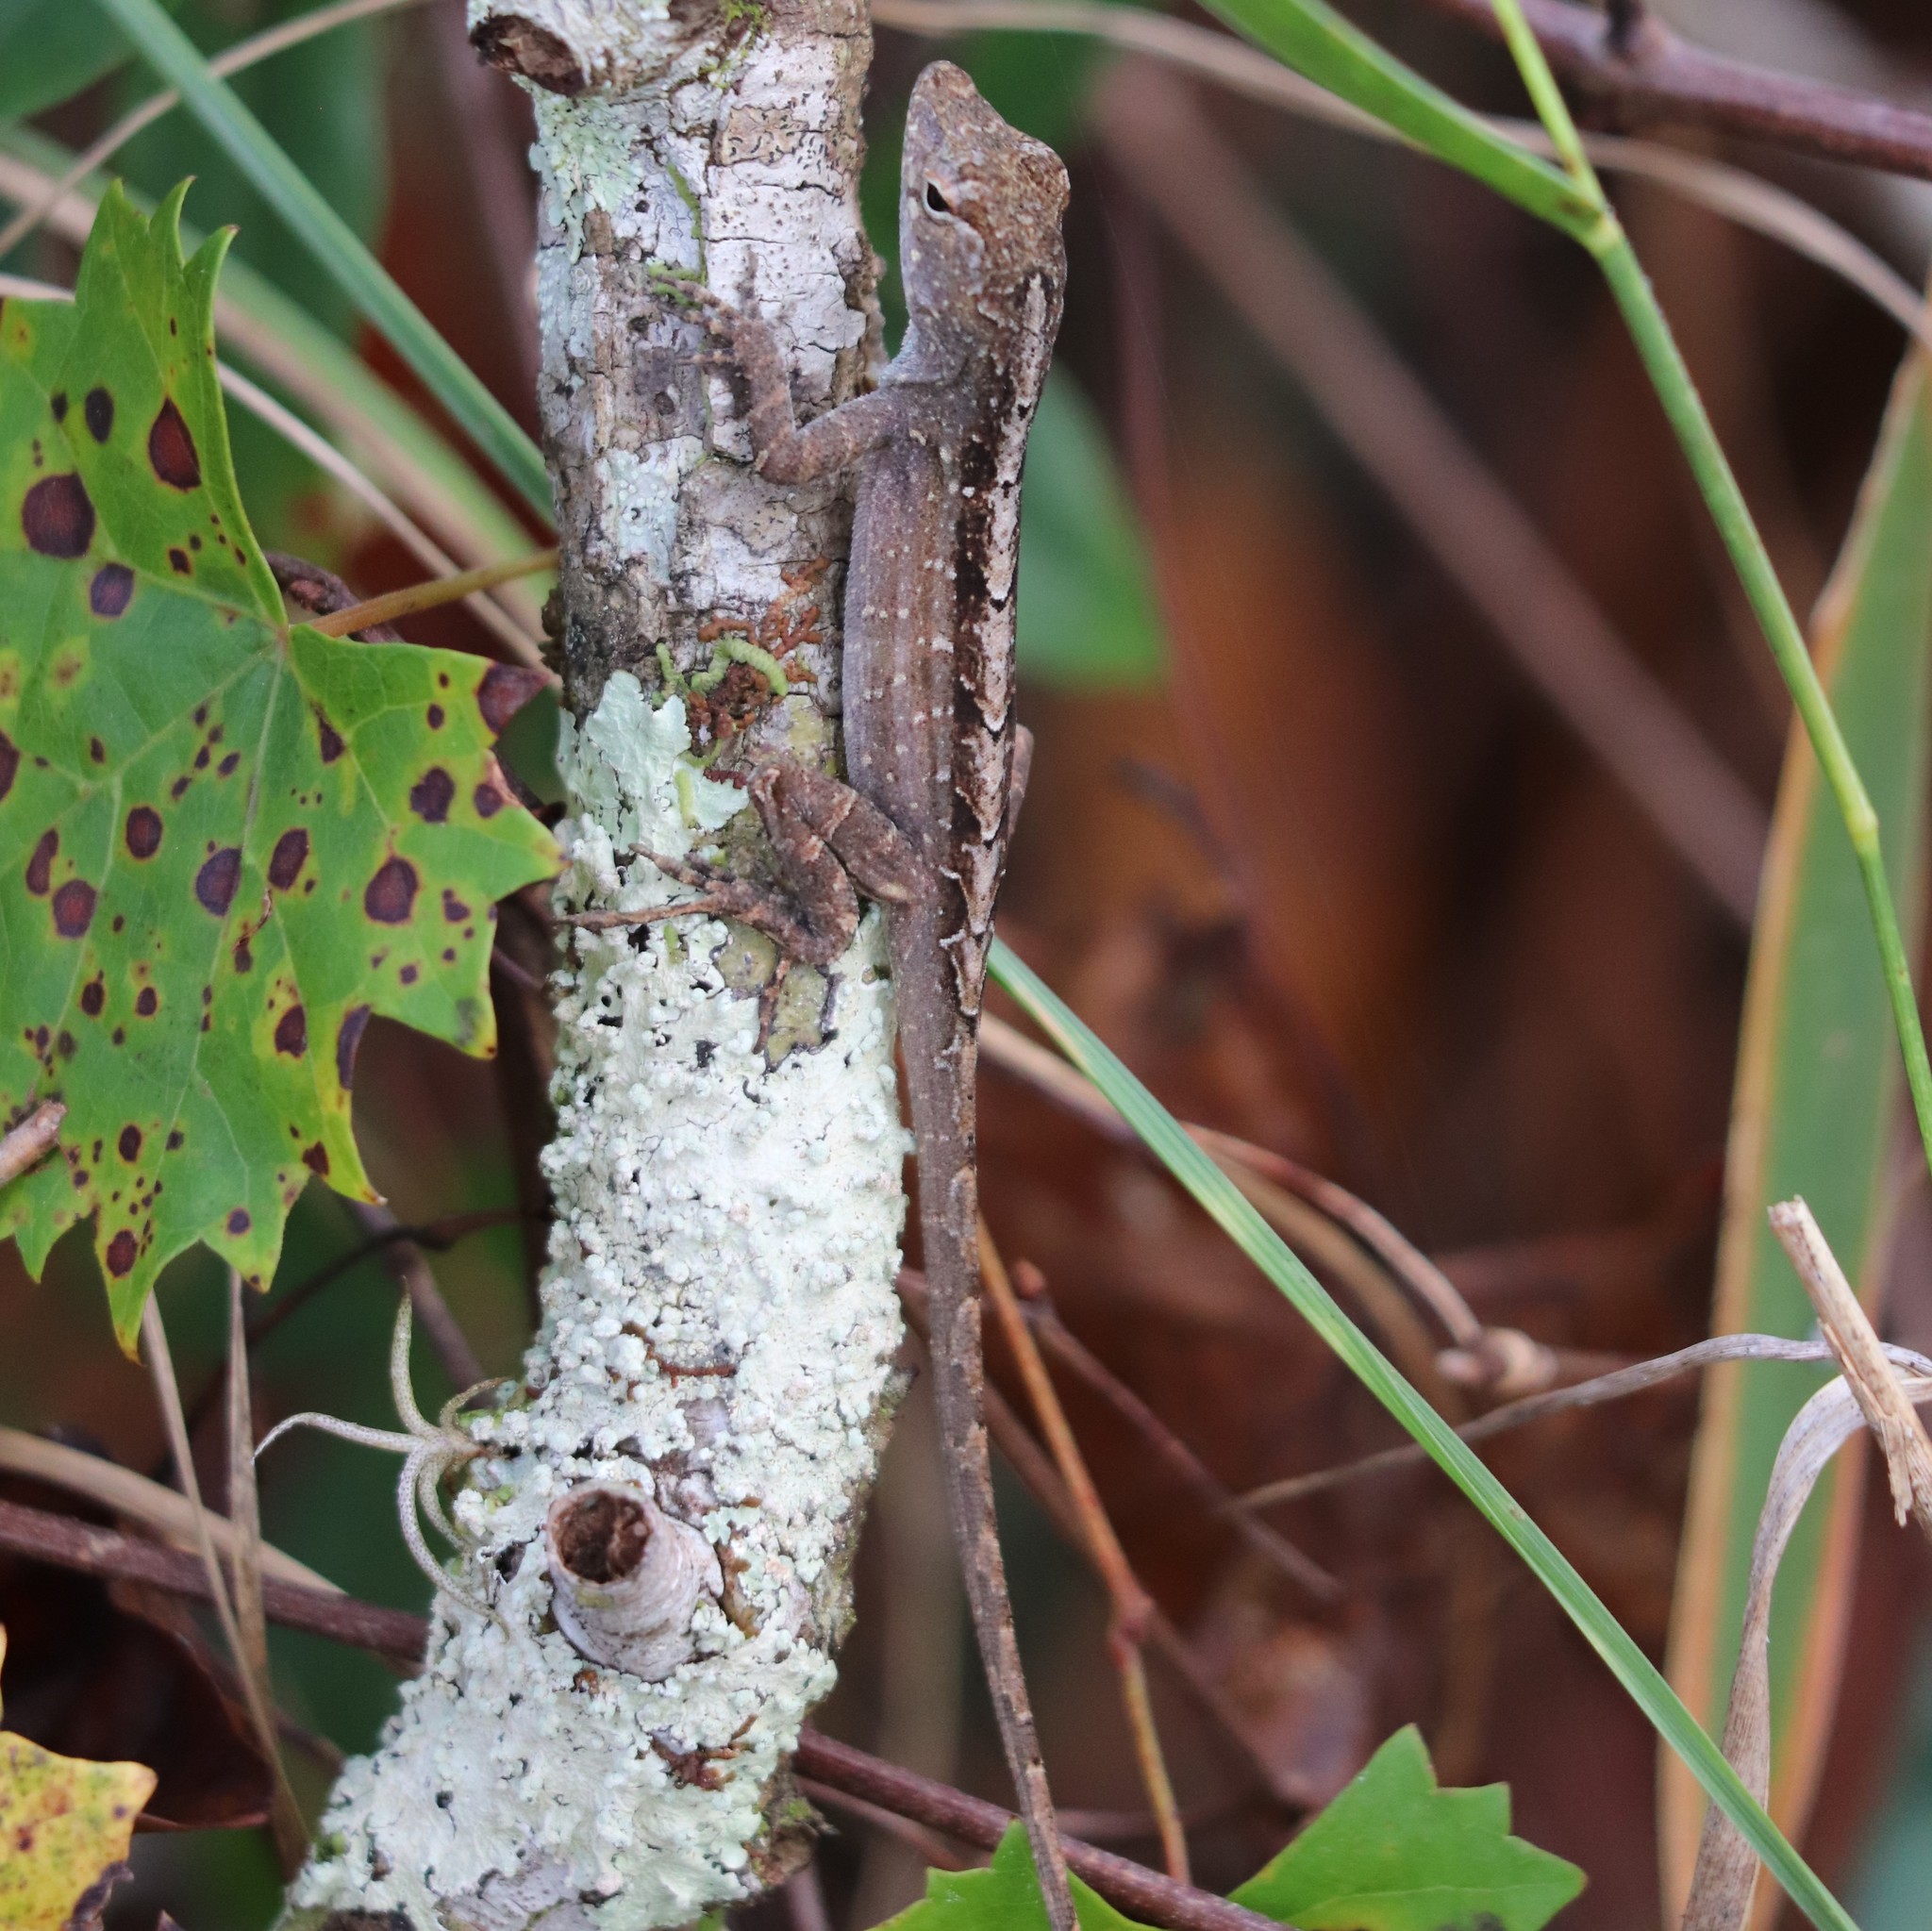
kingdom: Animalia
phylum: Chordata
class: Squamata
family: Dactyloidae
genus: Anolis
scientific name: Anolis sagrei
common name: Brown anole
